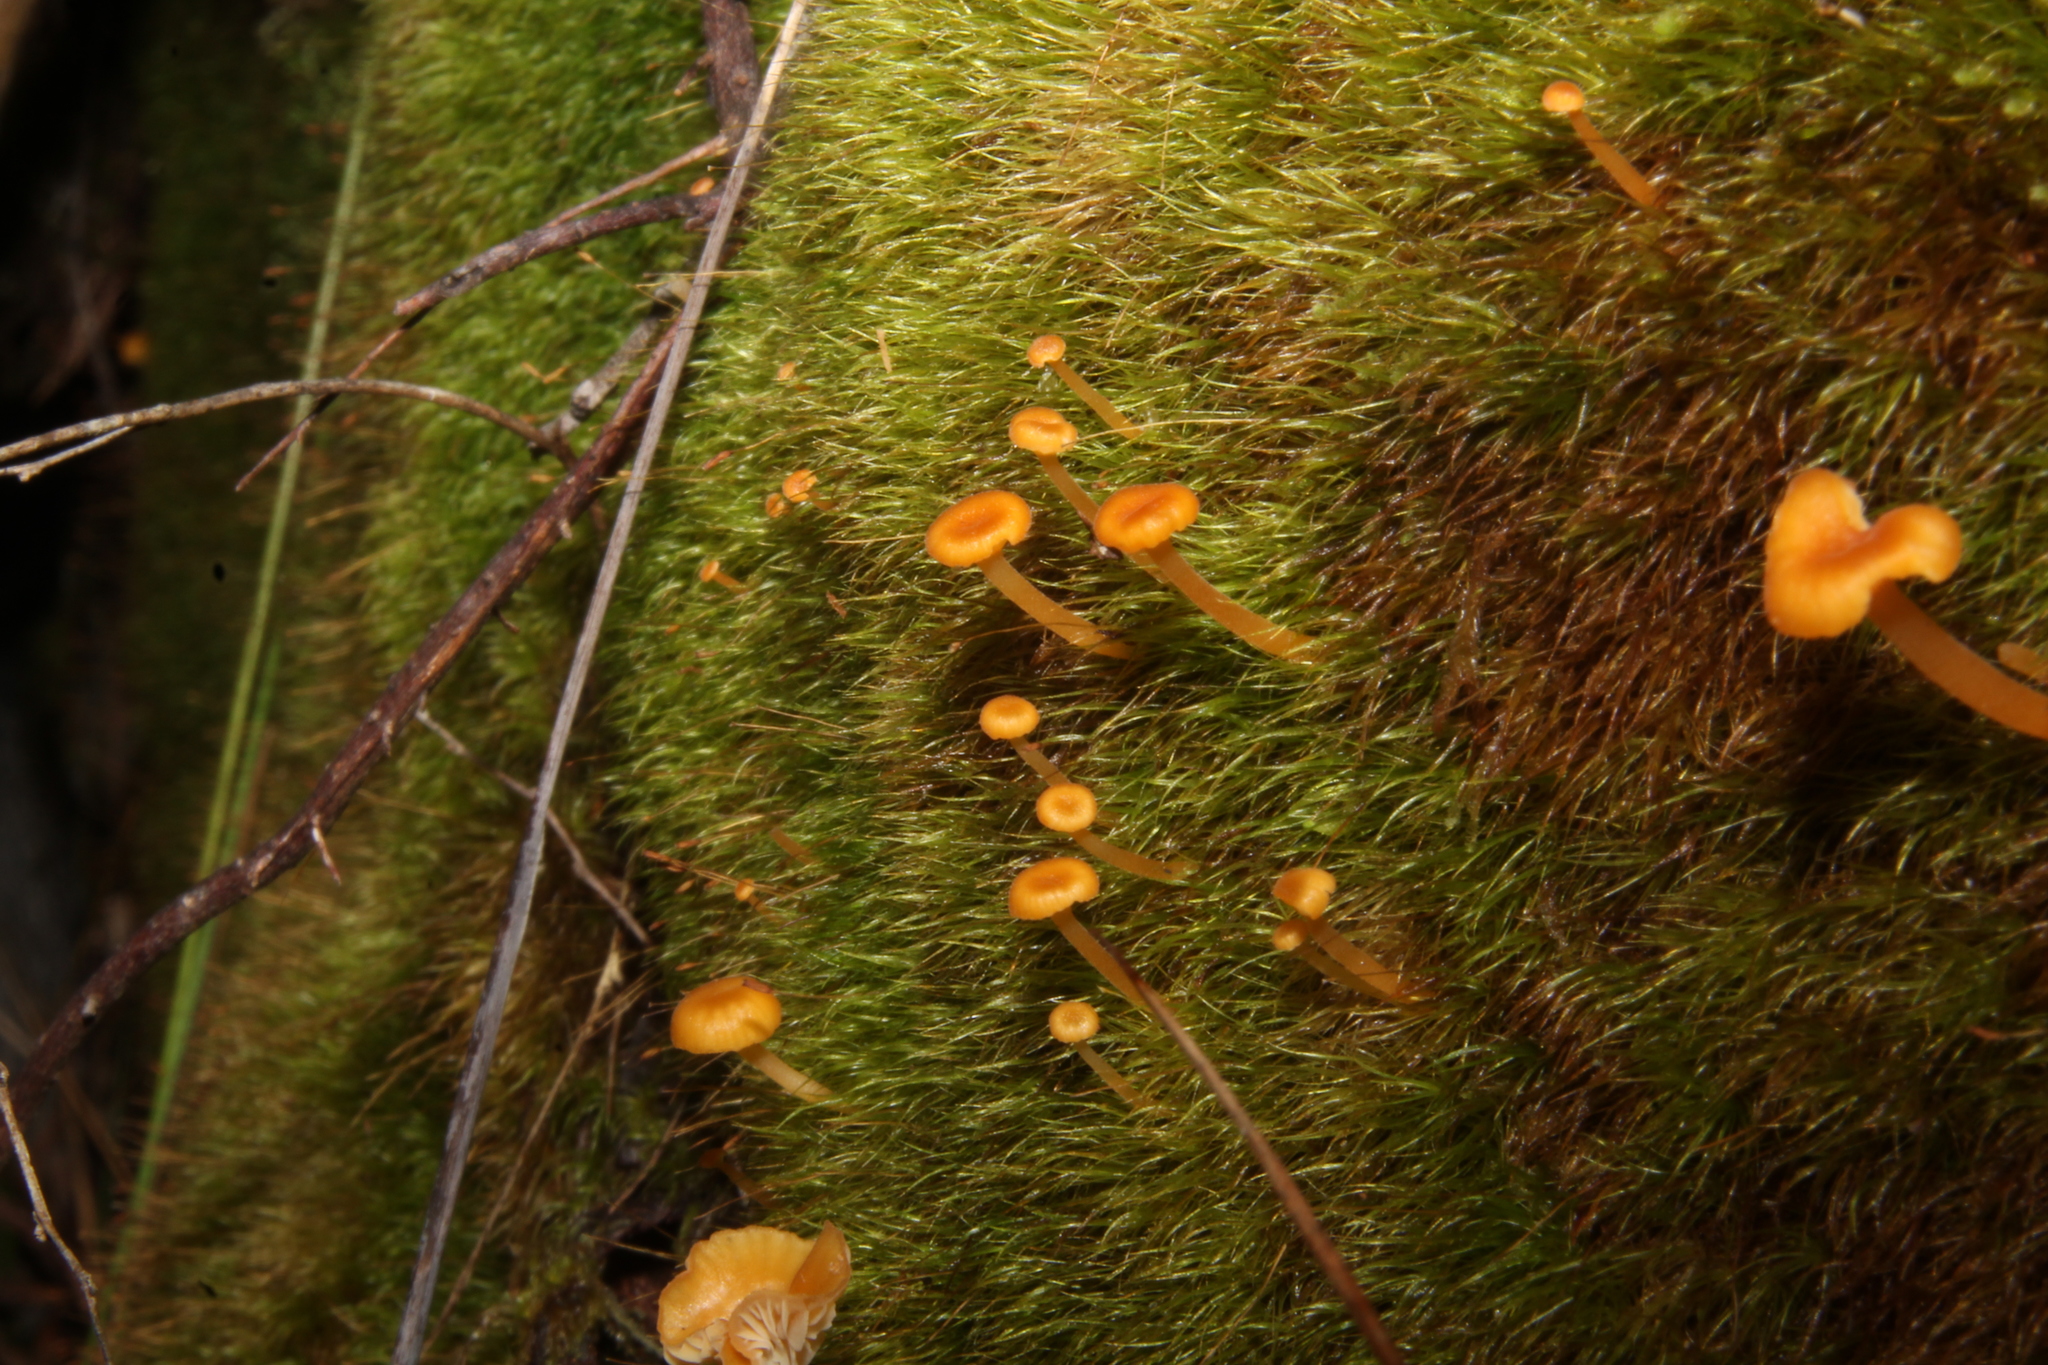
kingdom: Fungi
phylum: Basidiomycota
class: Agaricomycetes
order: Hymenochaetales
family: Rickenellaceae
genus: Rickenella
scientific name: Rickenella fibula
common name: Orange mosscap
